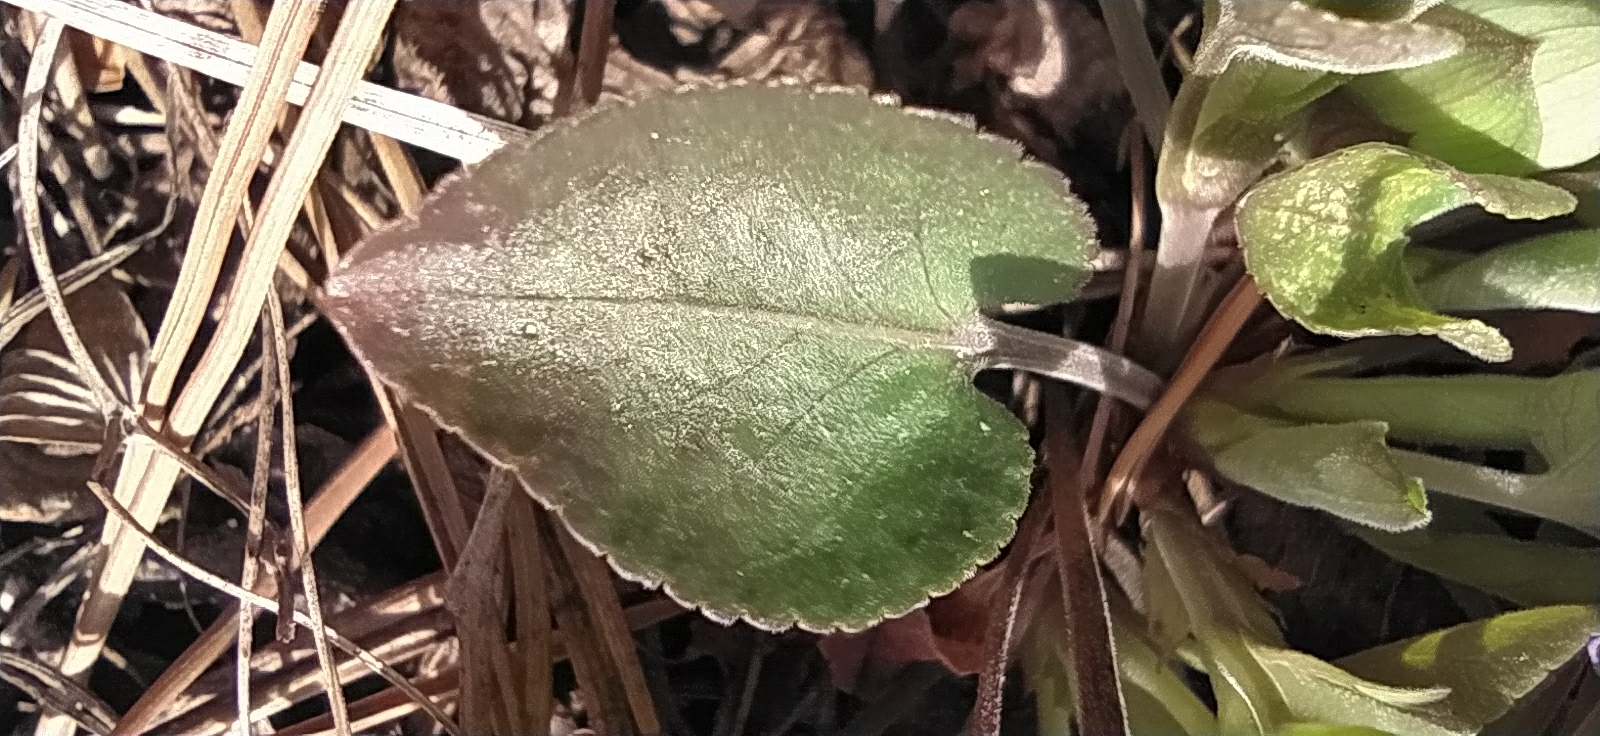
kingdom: Plantae
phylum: Tracheophyta
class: Magnoliopsida
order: Malpighiales
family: Violaceae
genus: Viola
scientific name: Viola rupestris
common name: Teesdale violet
